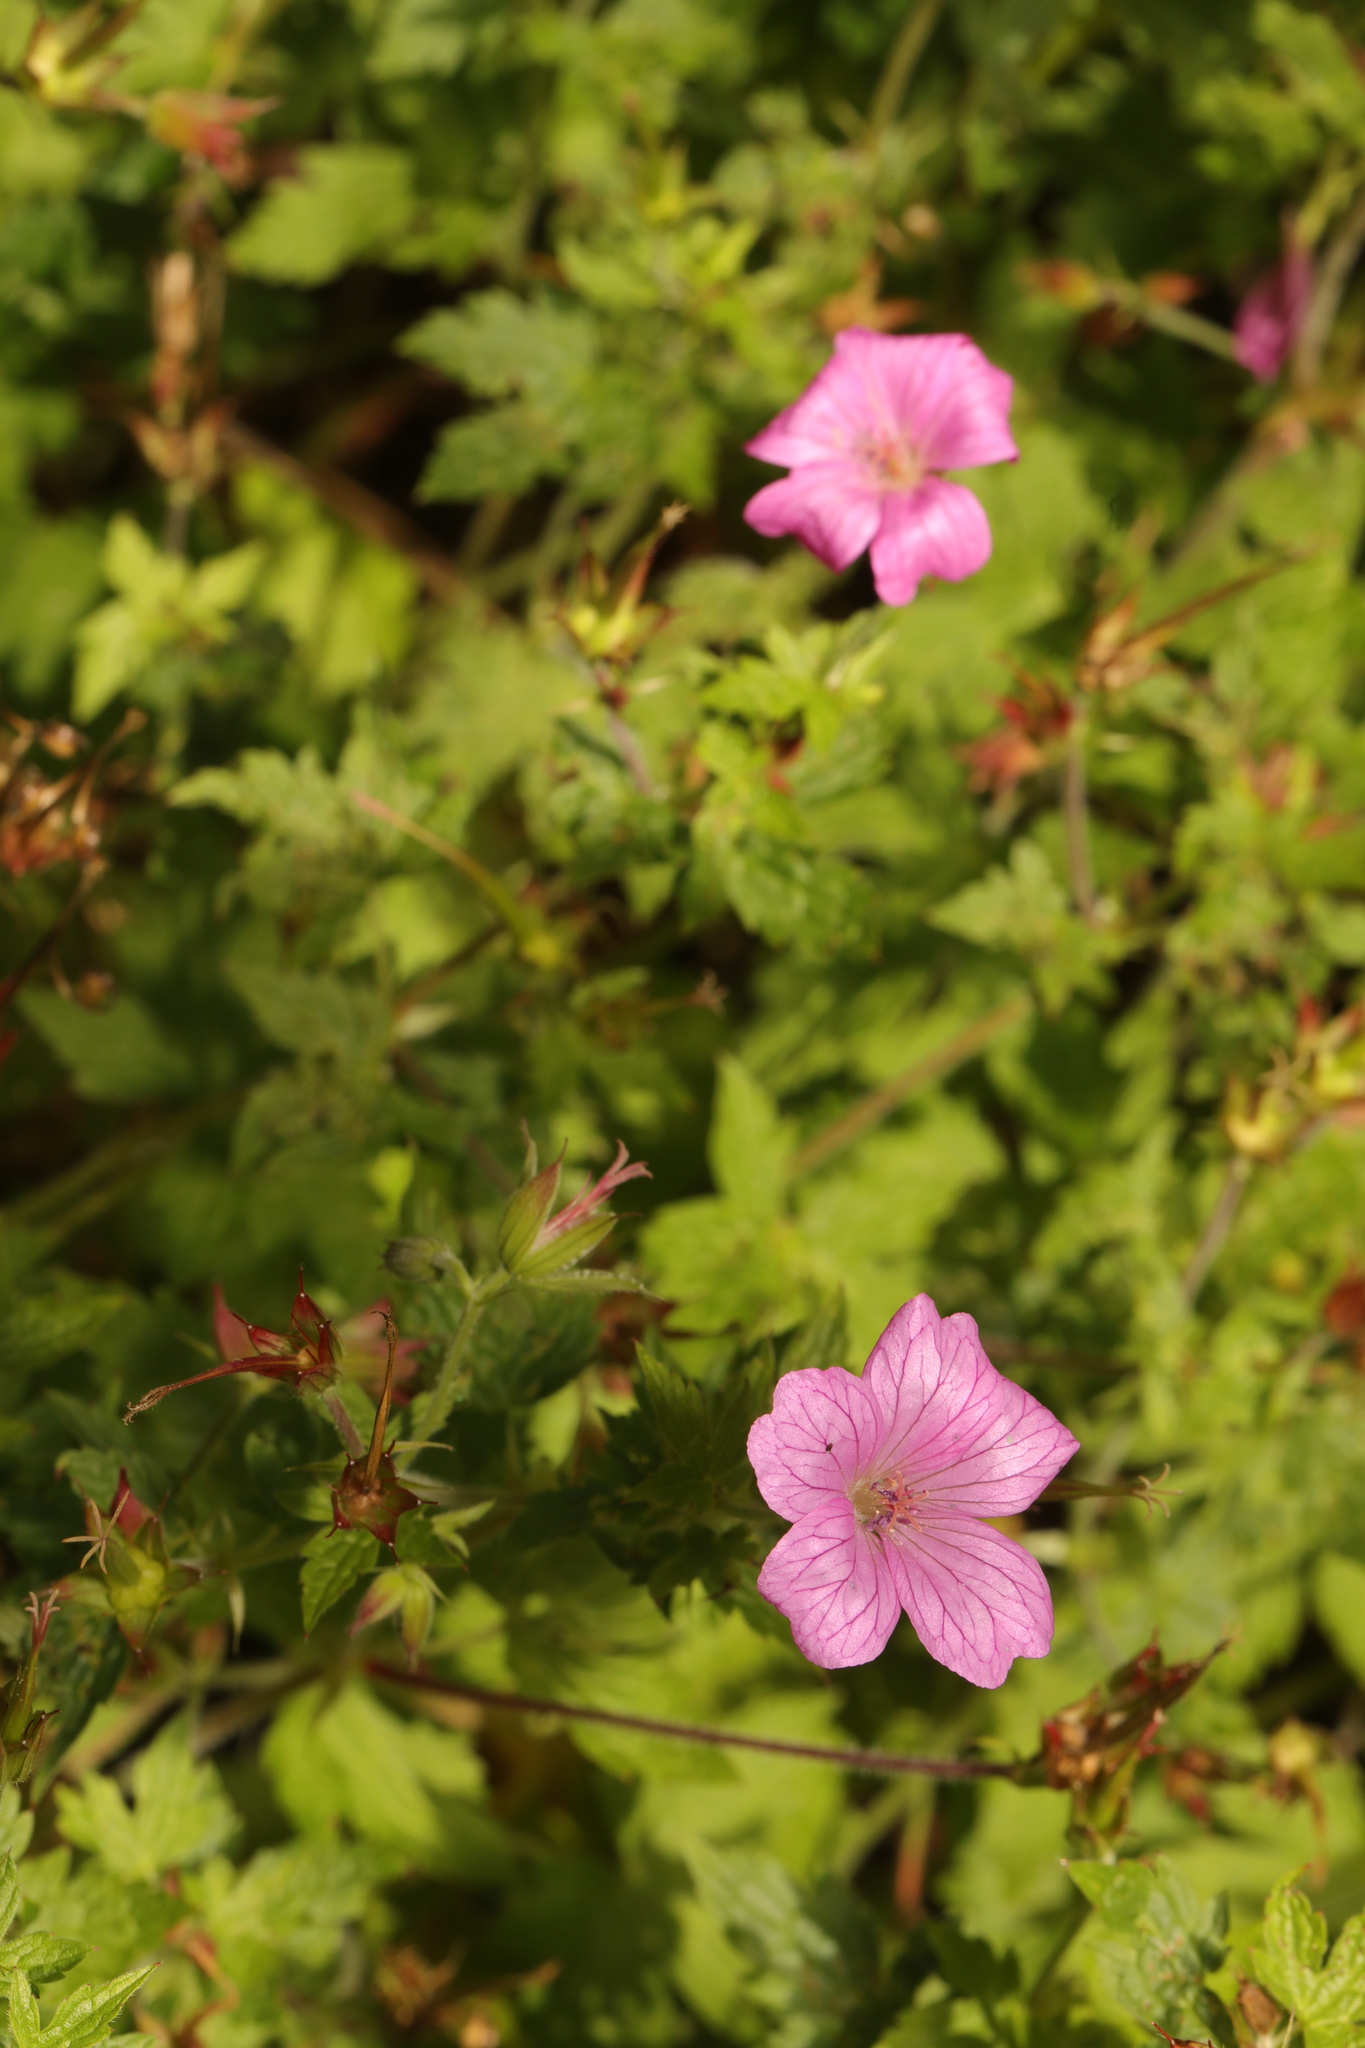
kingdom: Plantae
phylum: Tracheophyta
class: Magnoliopsida
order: Geraniales
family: Geraniaceae
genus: Geranium
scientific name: Geranium oxonianum
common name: Druce's crane's-bill
